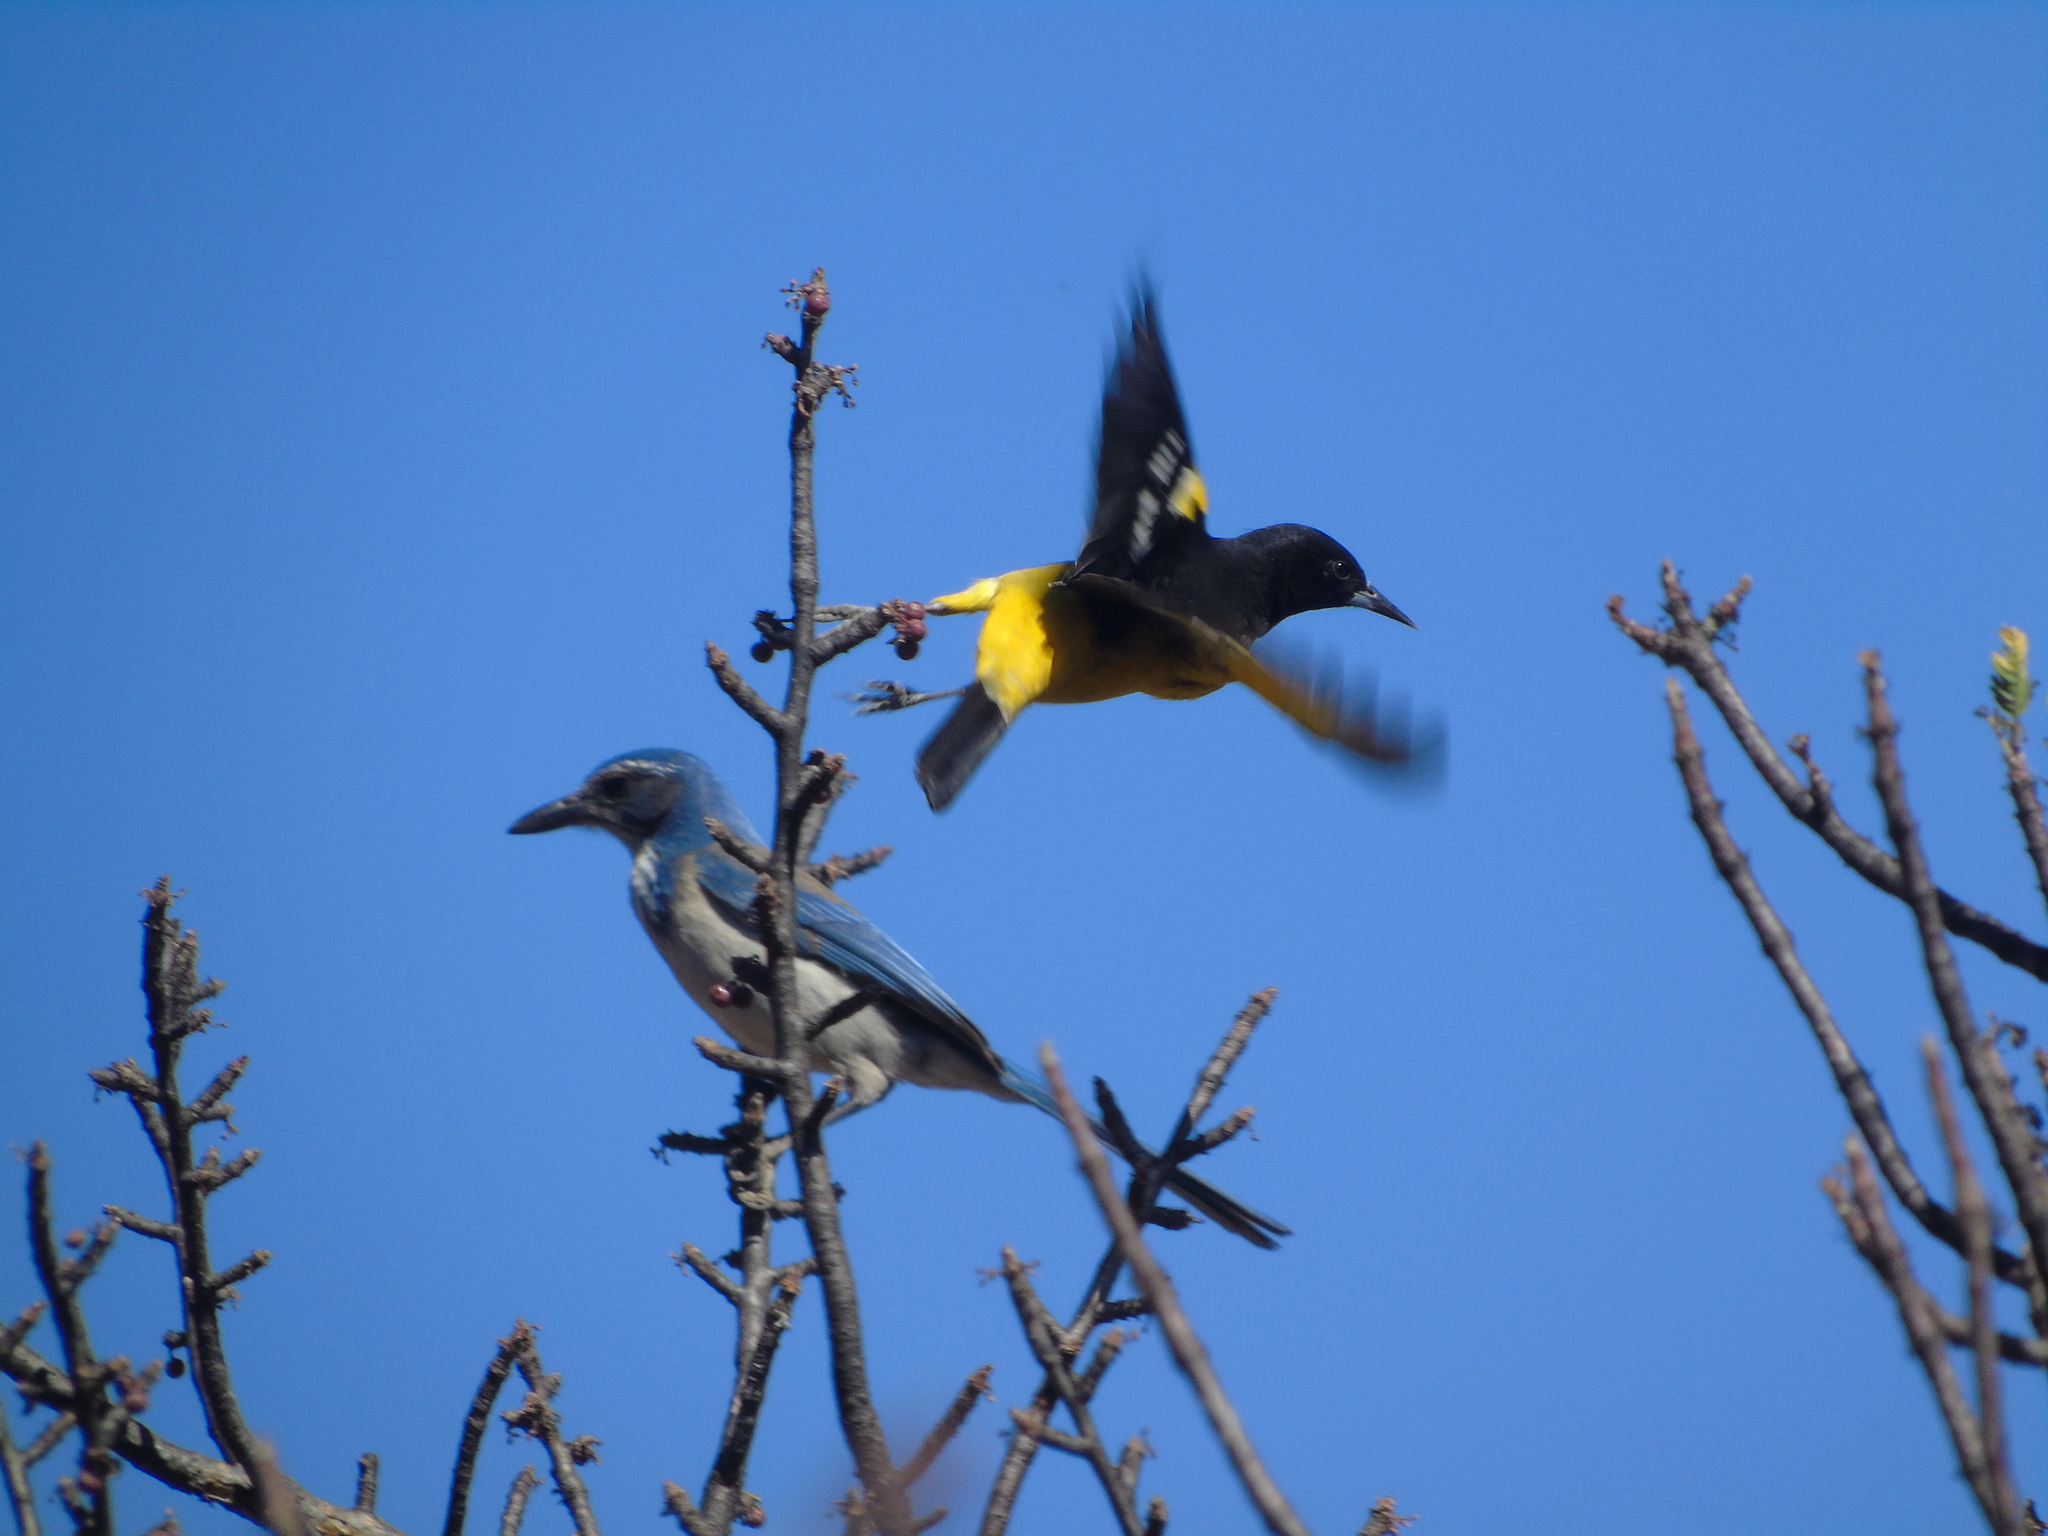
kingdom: Animalia
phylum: Chordata
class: Aves
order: Passeriformes
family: Icteridae
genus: Icterus
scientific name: Icterus parisorum
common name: Scott's oriole
